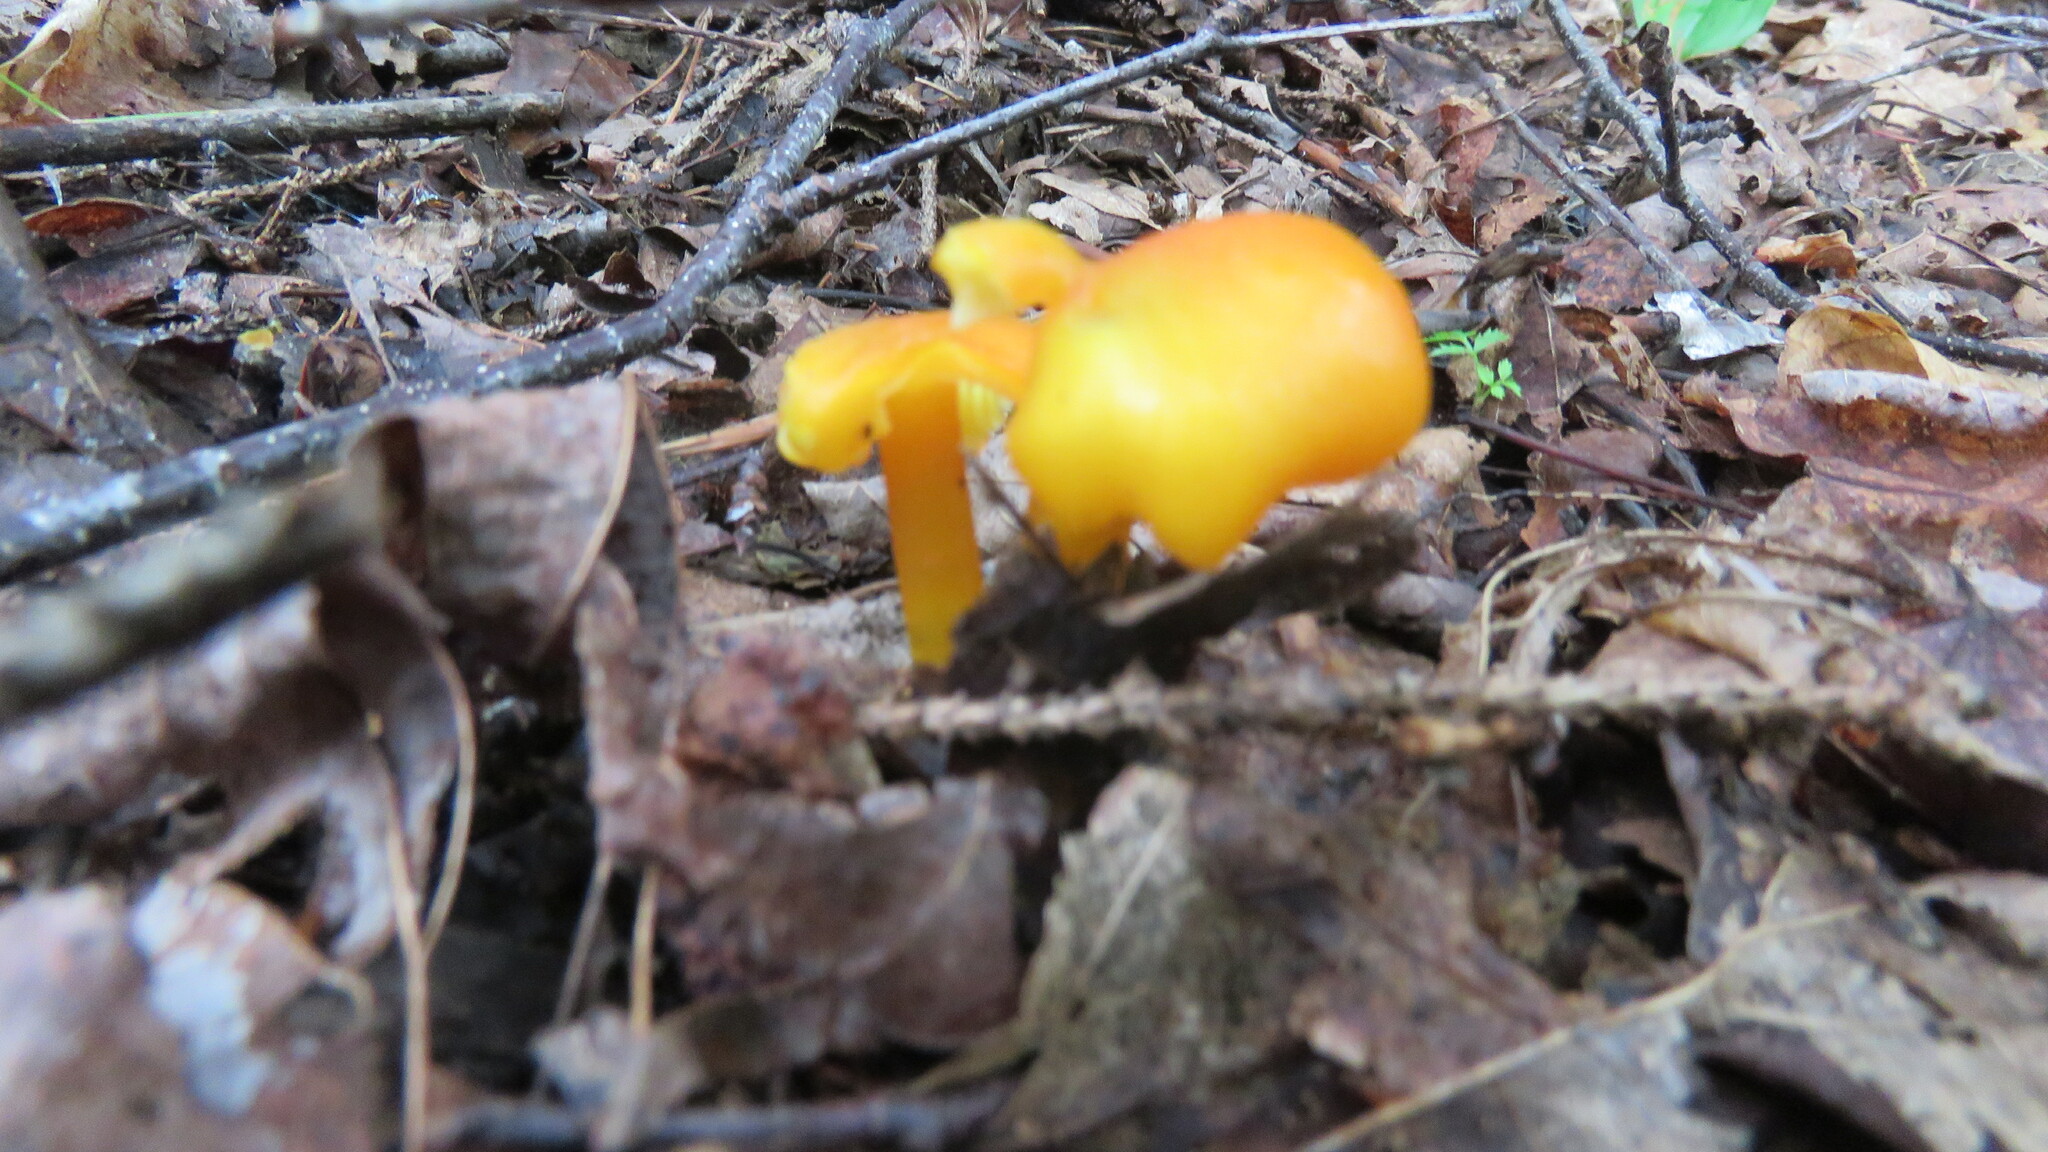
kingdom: Fungi
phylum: Basidiomycota
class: Agaricomycetes
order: Agaricales
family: Hygrophoraceae
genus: Hygrocybe
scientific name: Hygrocybe flavescens
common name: Golden waxy cap
